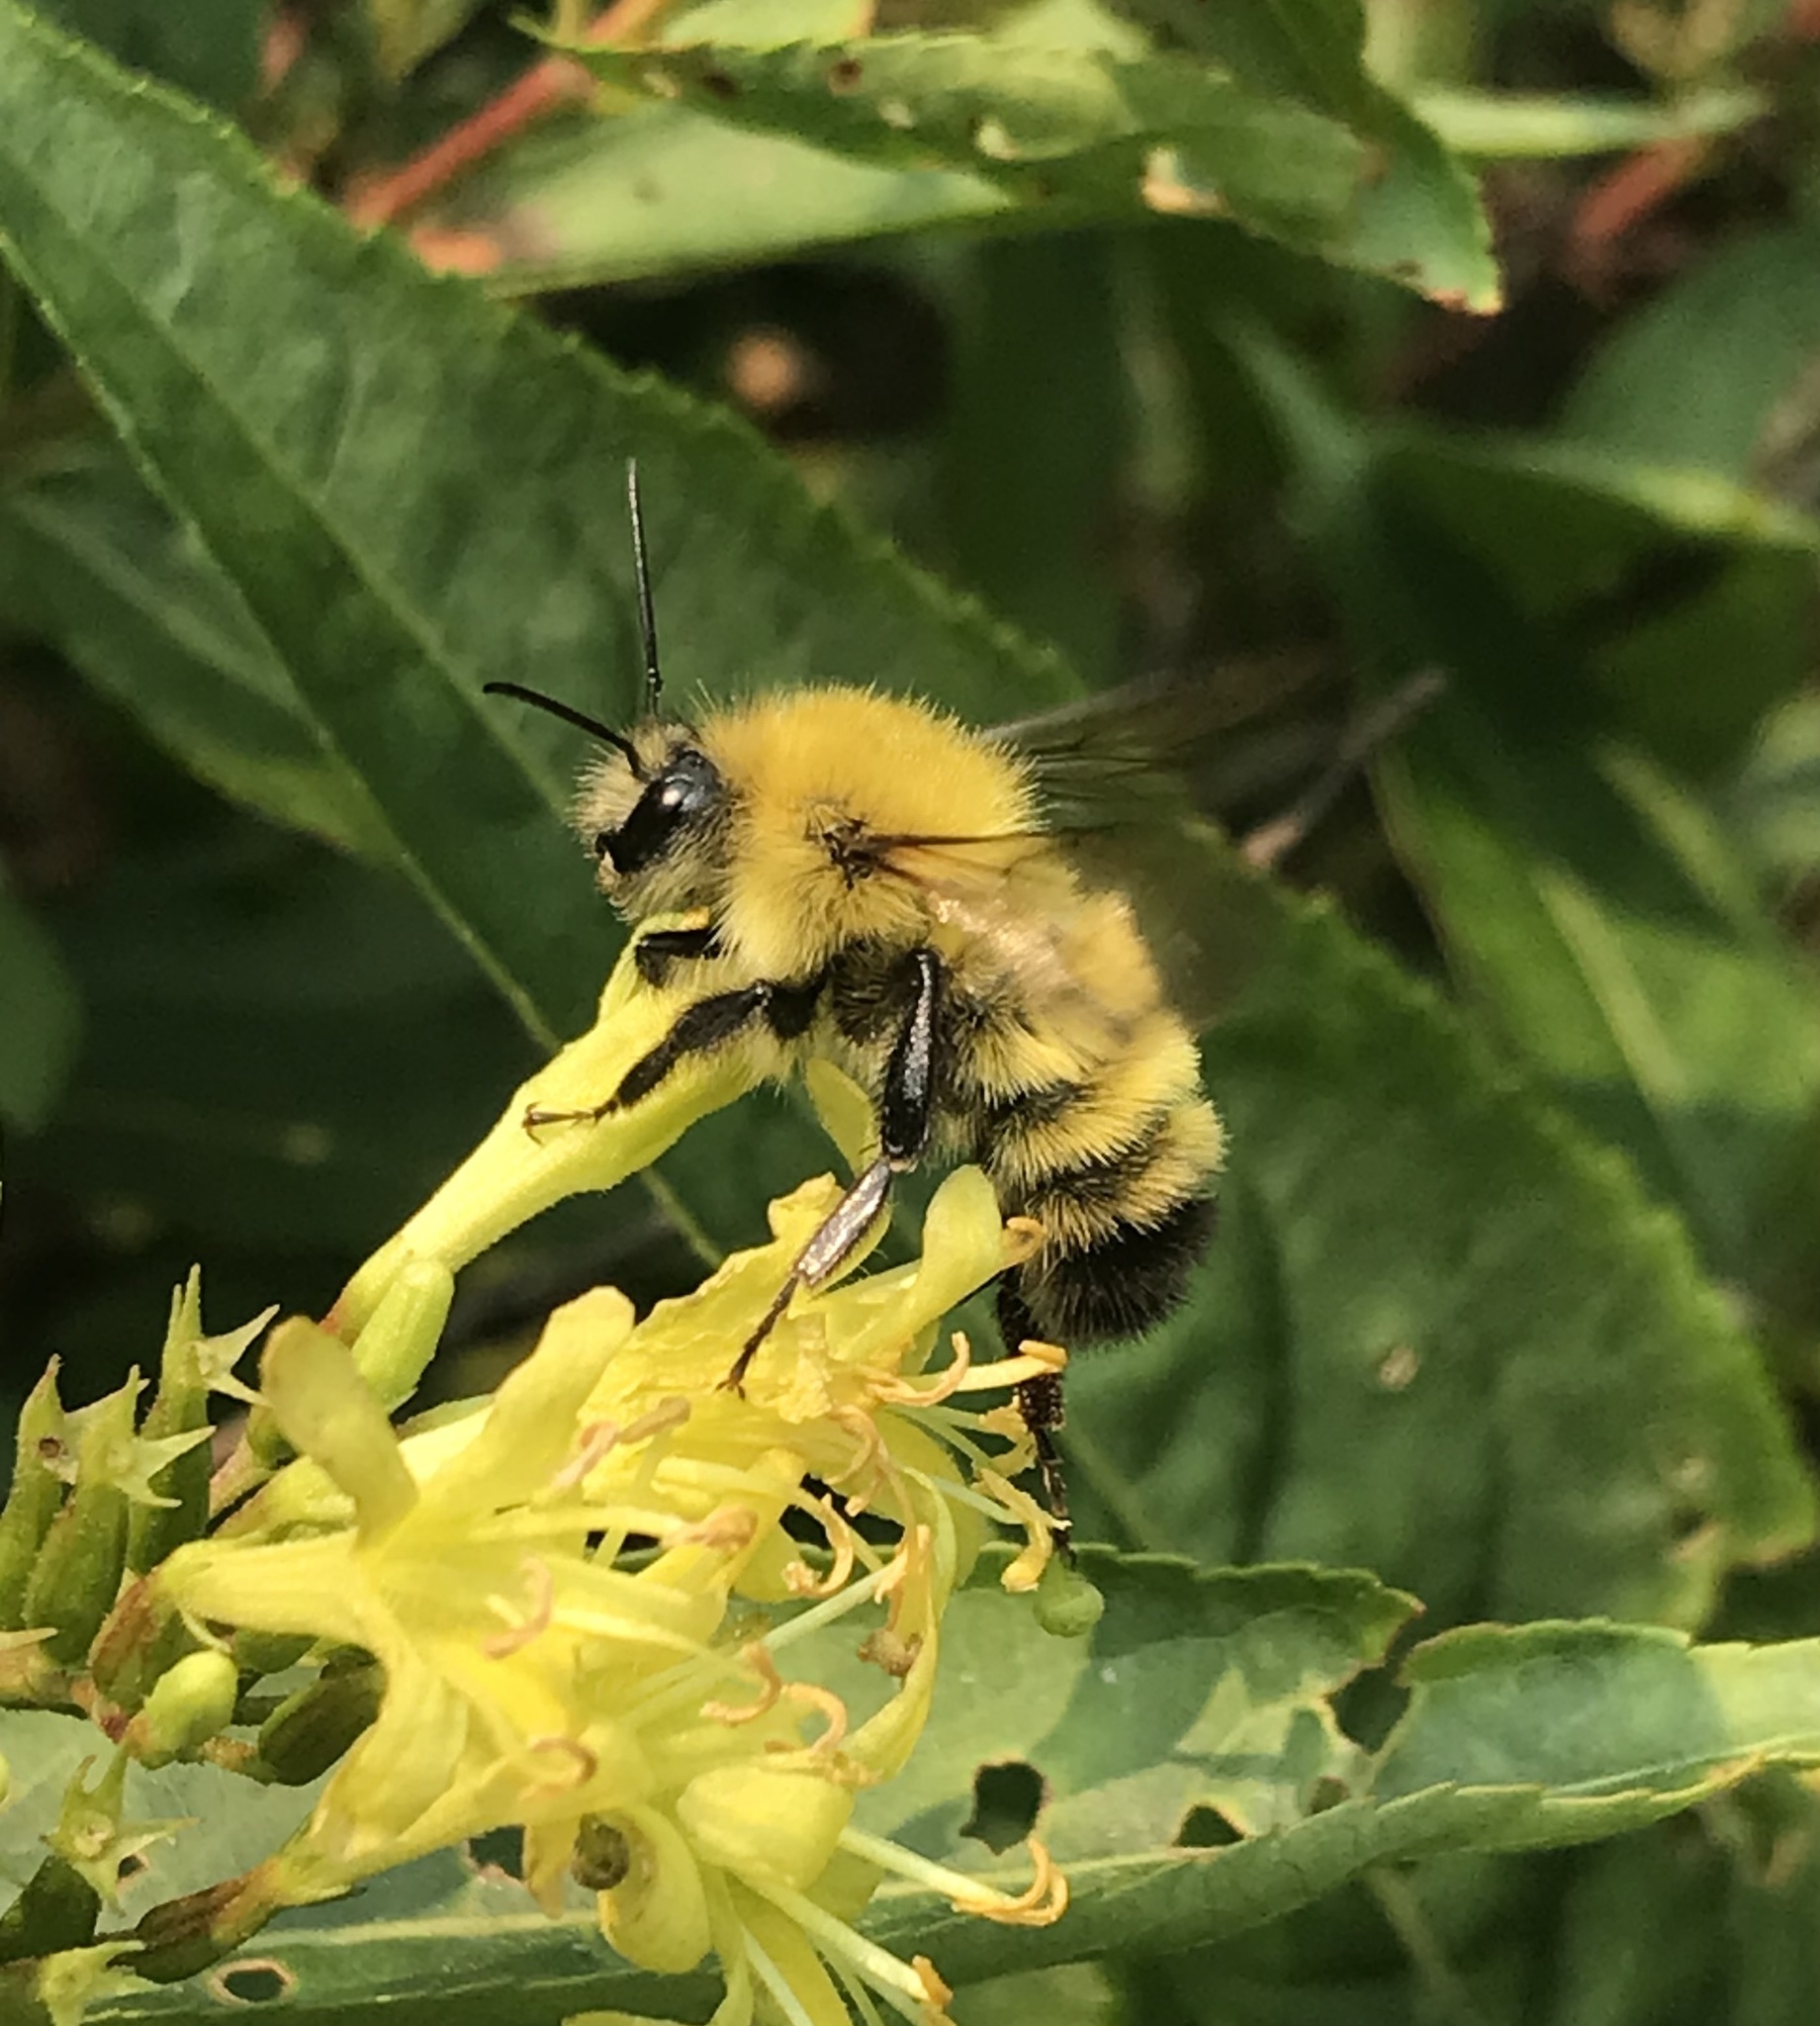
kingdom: Animalia
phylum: Arthropoda
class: Insecta
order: Hymenoptera
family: Apidae
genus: Bombus
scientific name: Bombus perplexus
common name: Confusing bumble bee
